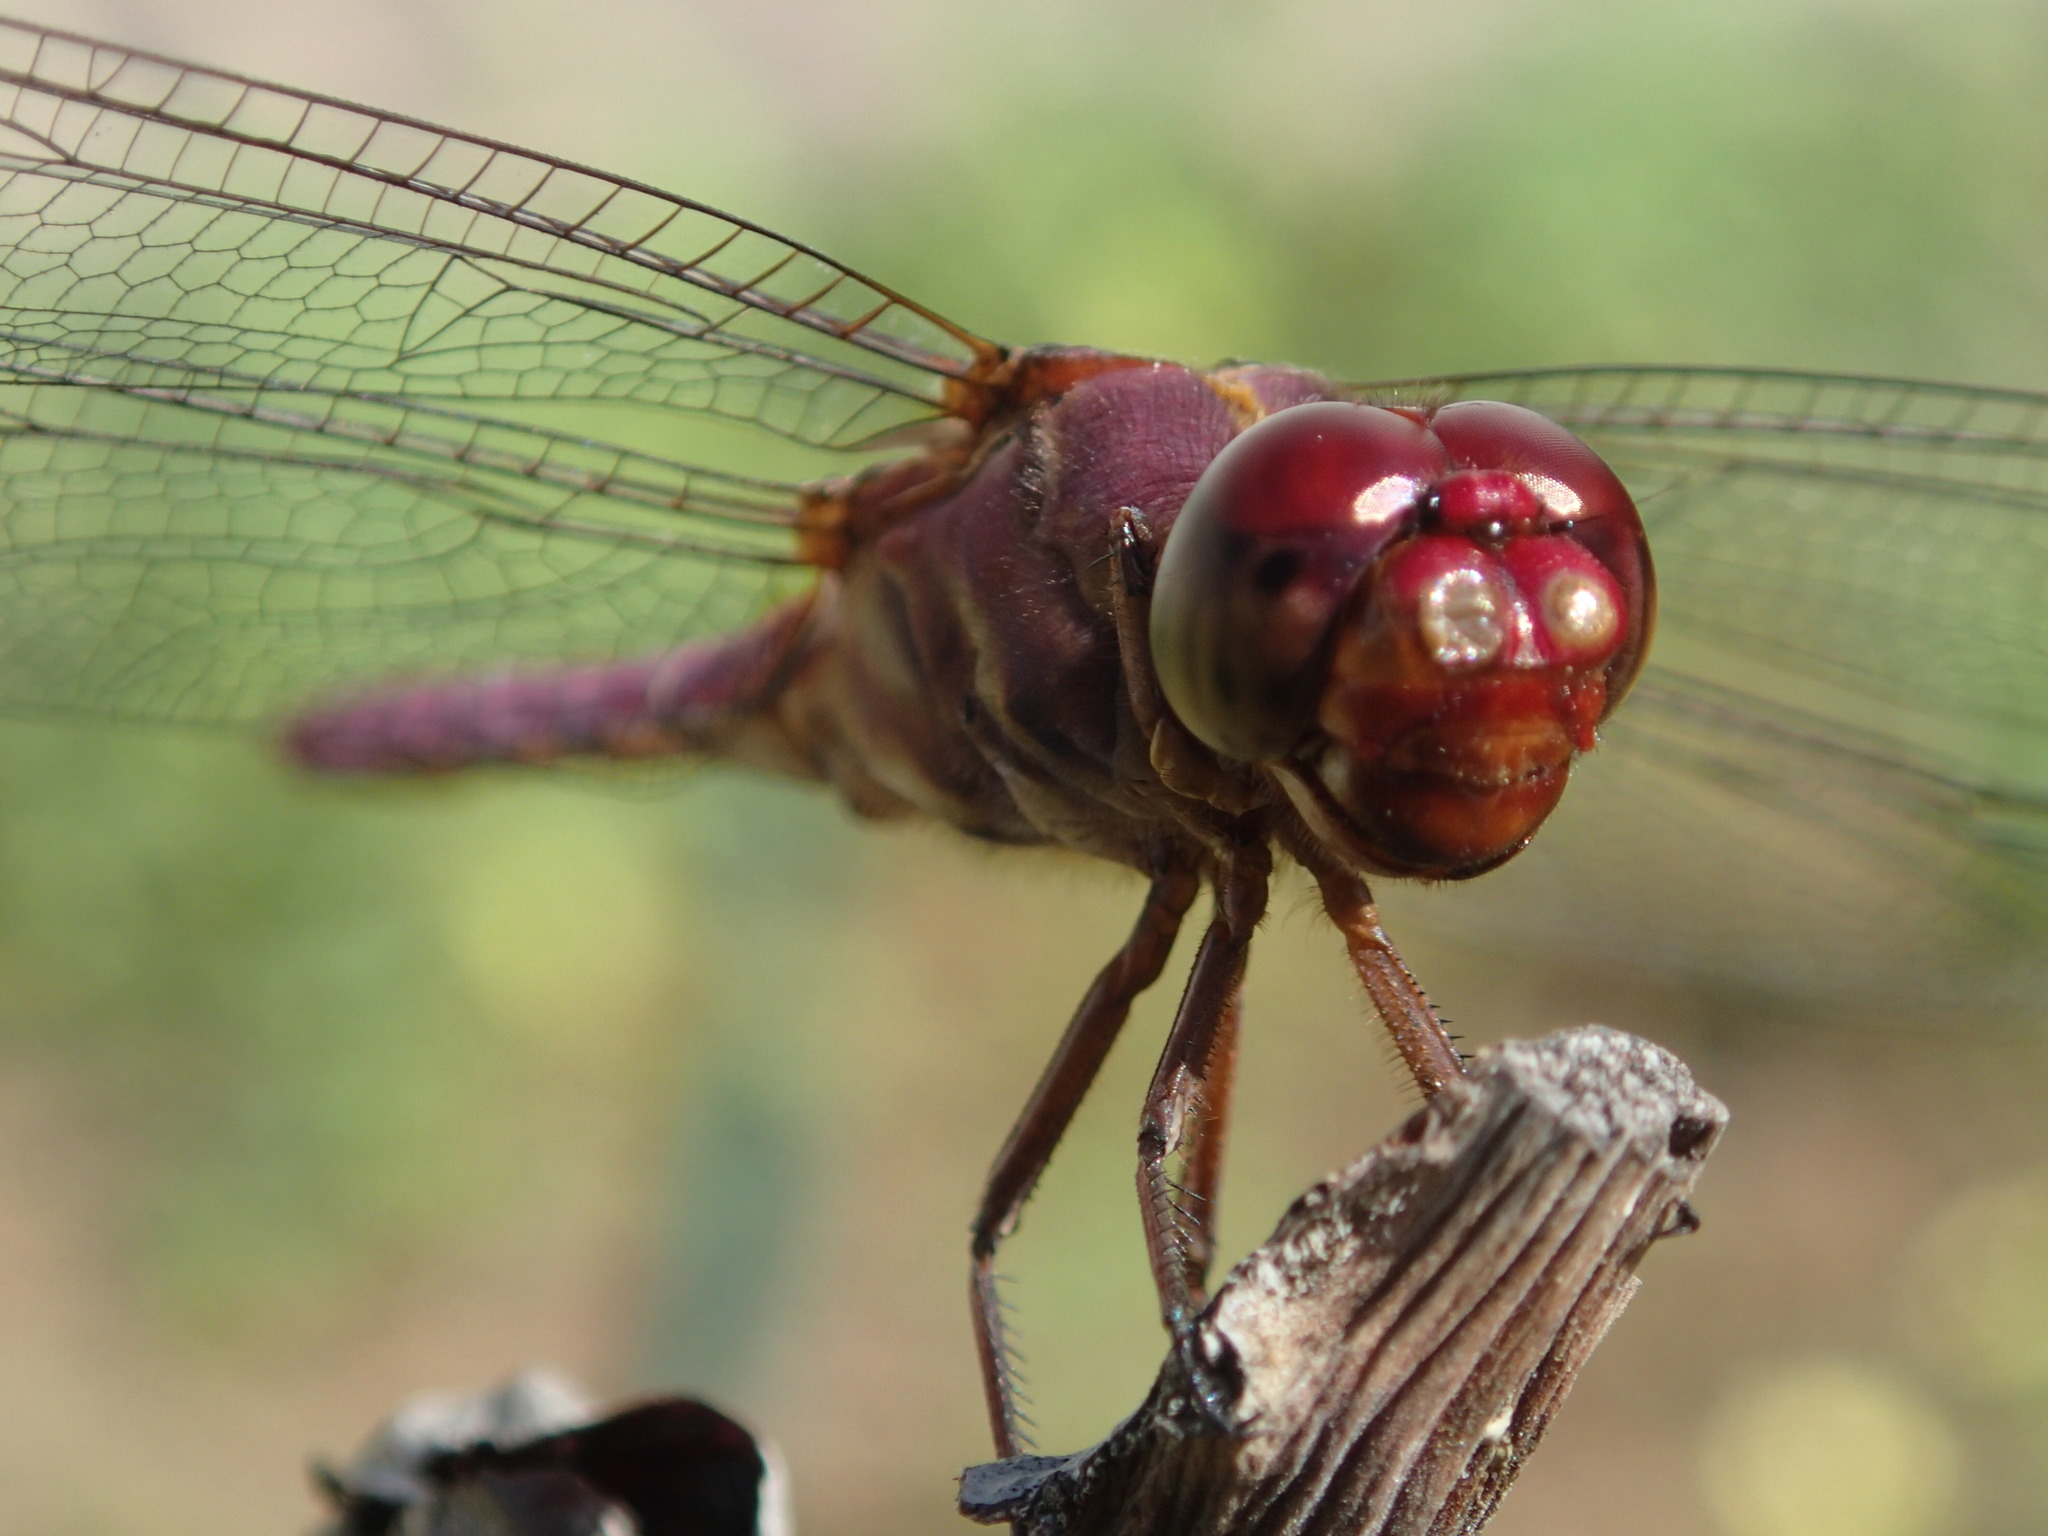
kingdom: Animalia
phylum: Arthropoda
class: Insecta
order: Odonata
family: Libellulidae
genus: Orthemis
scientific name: Orthemis discolor
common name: Carmine skimmer
